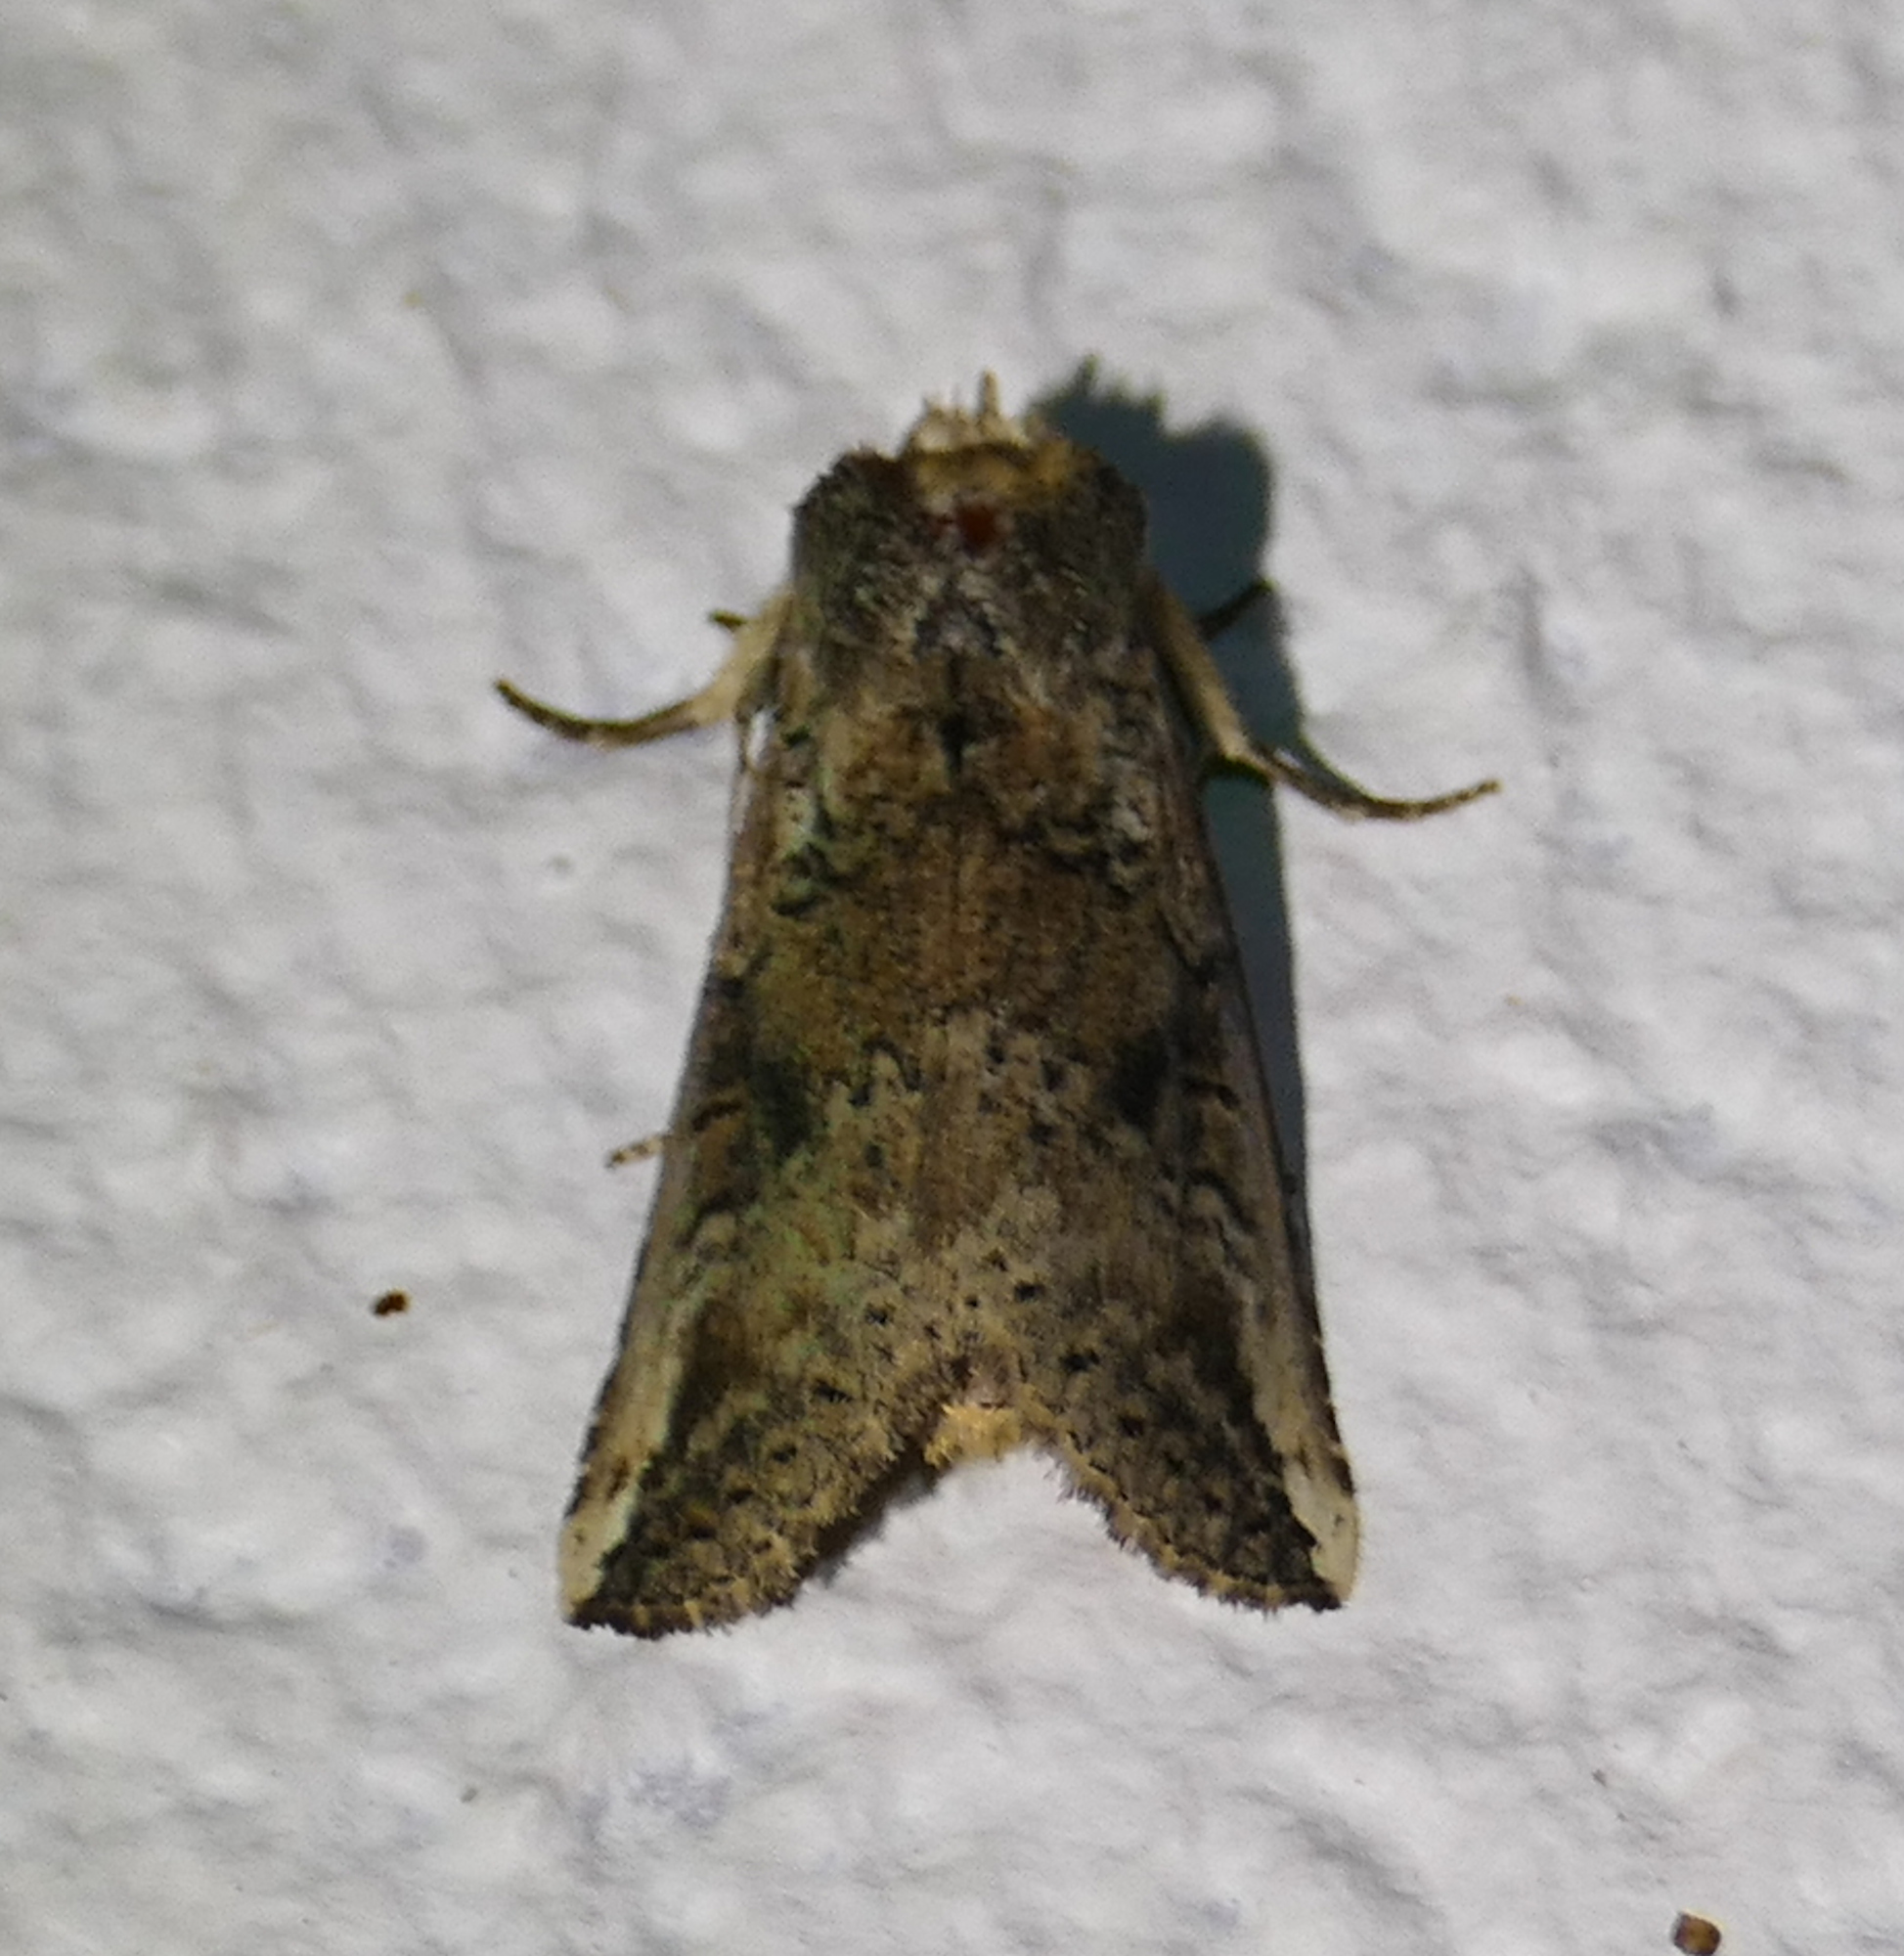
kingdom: Animalia
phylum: Arthropoda
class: Insecta
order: Lepidoptera
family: Notodontidae
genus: Elasmia
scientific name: Elasmia packardii
